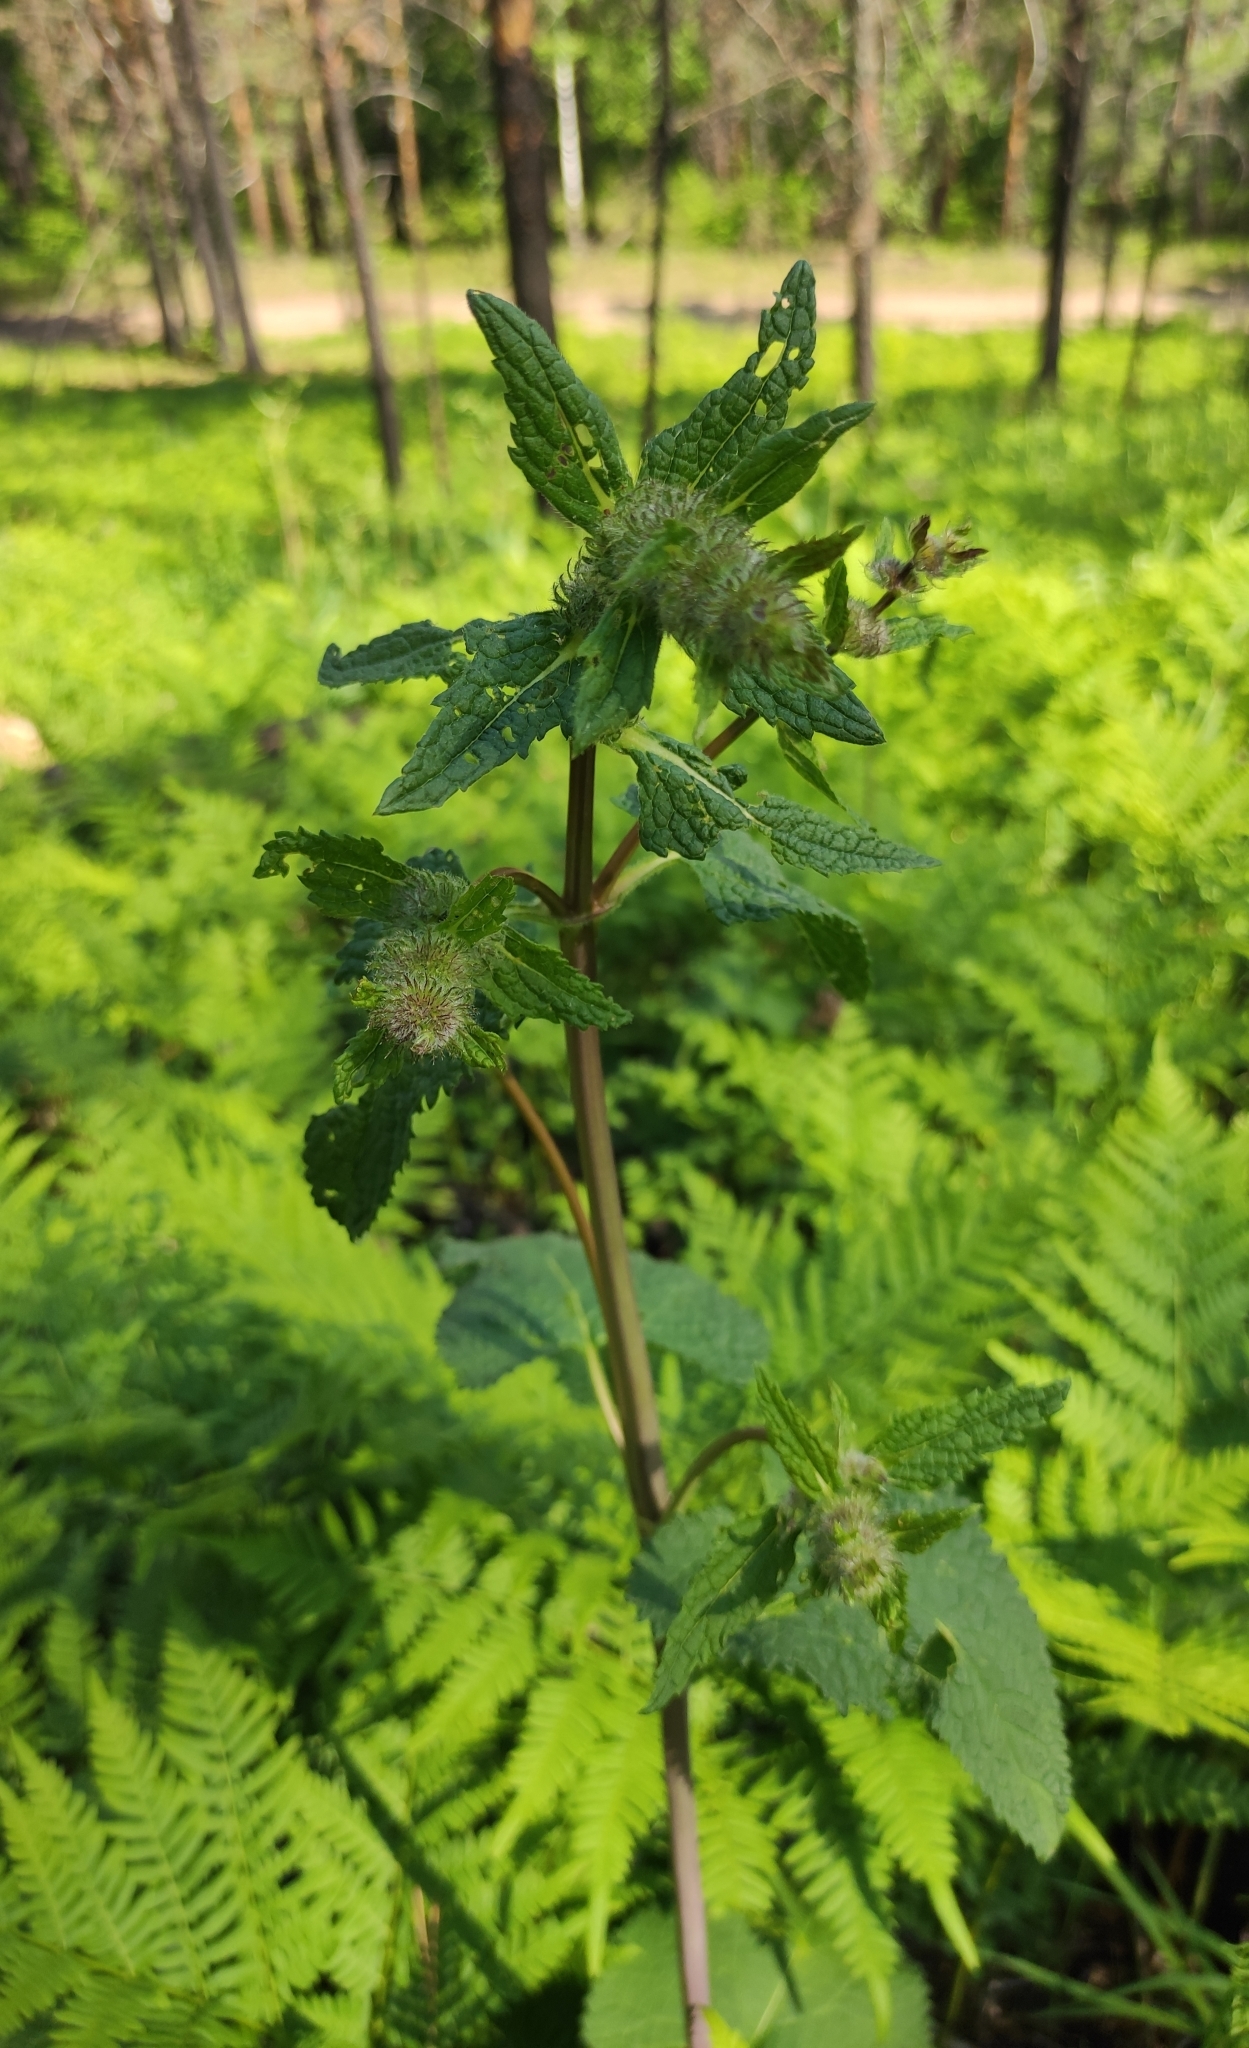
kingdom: Plantae
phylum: Tracheophyta
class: Magnoliopsida
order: Lamiales
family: Lamiaceae
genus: Phlomoides
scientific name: Phlomoides tuberosa
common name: Tuberous jerusalem sage
